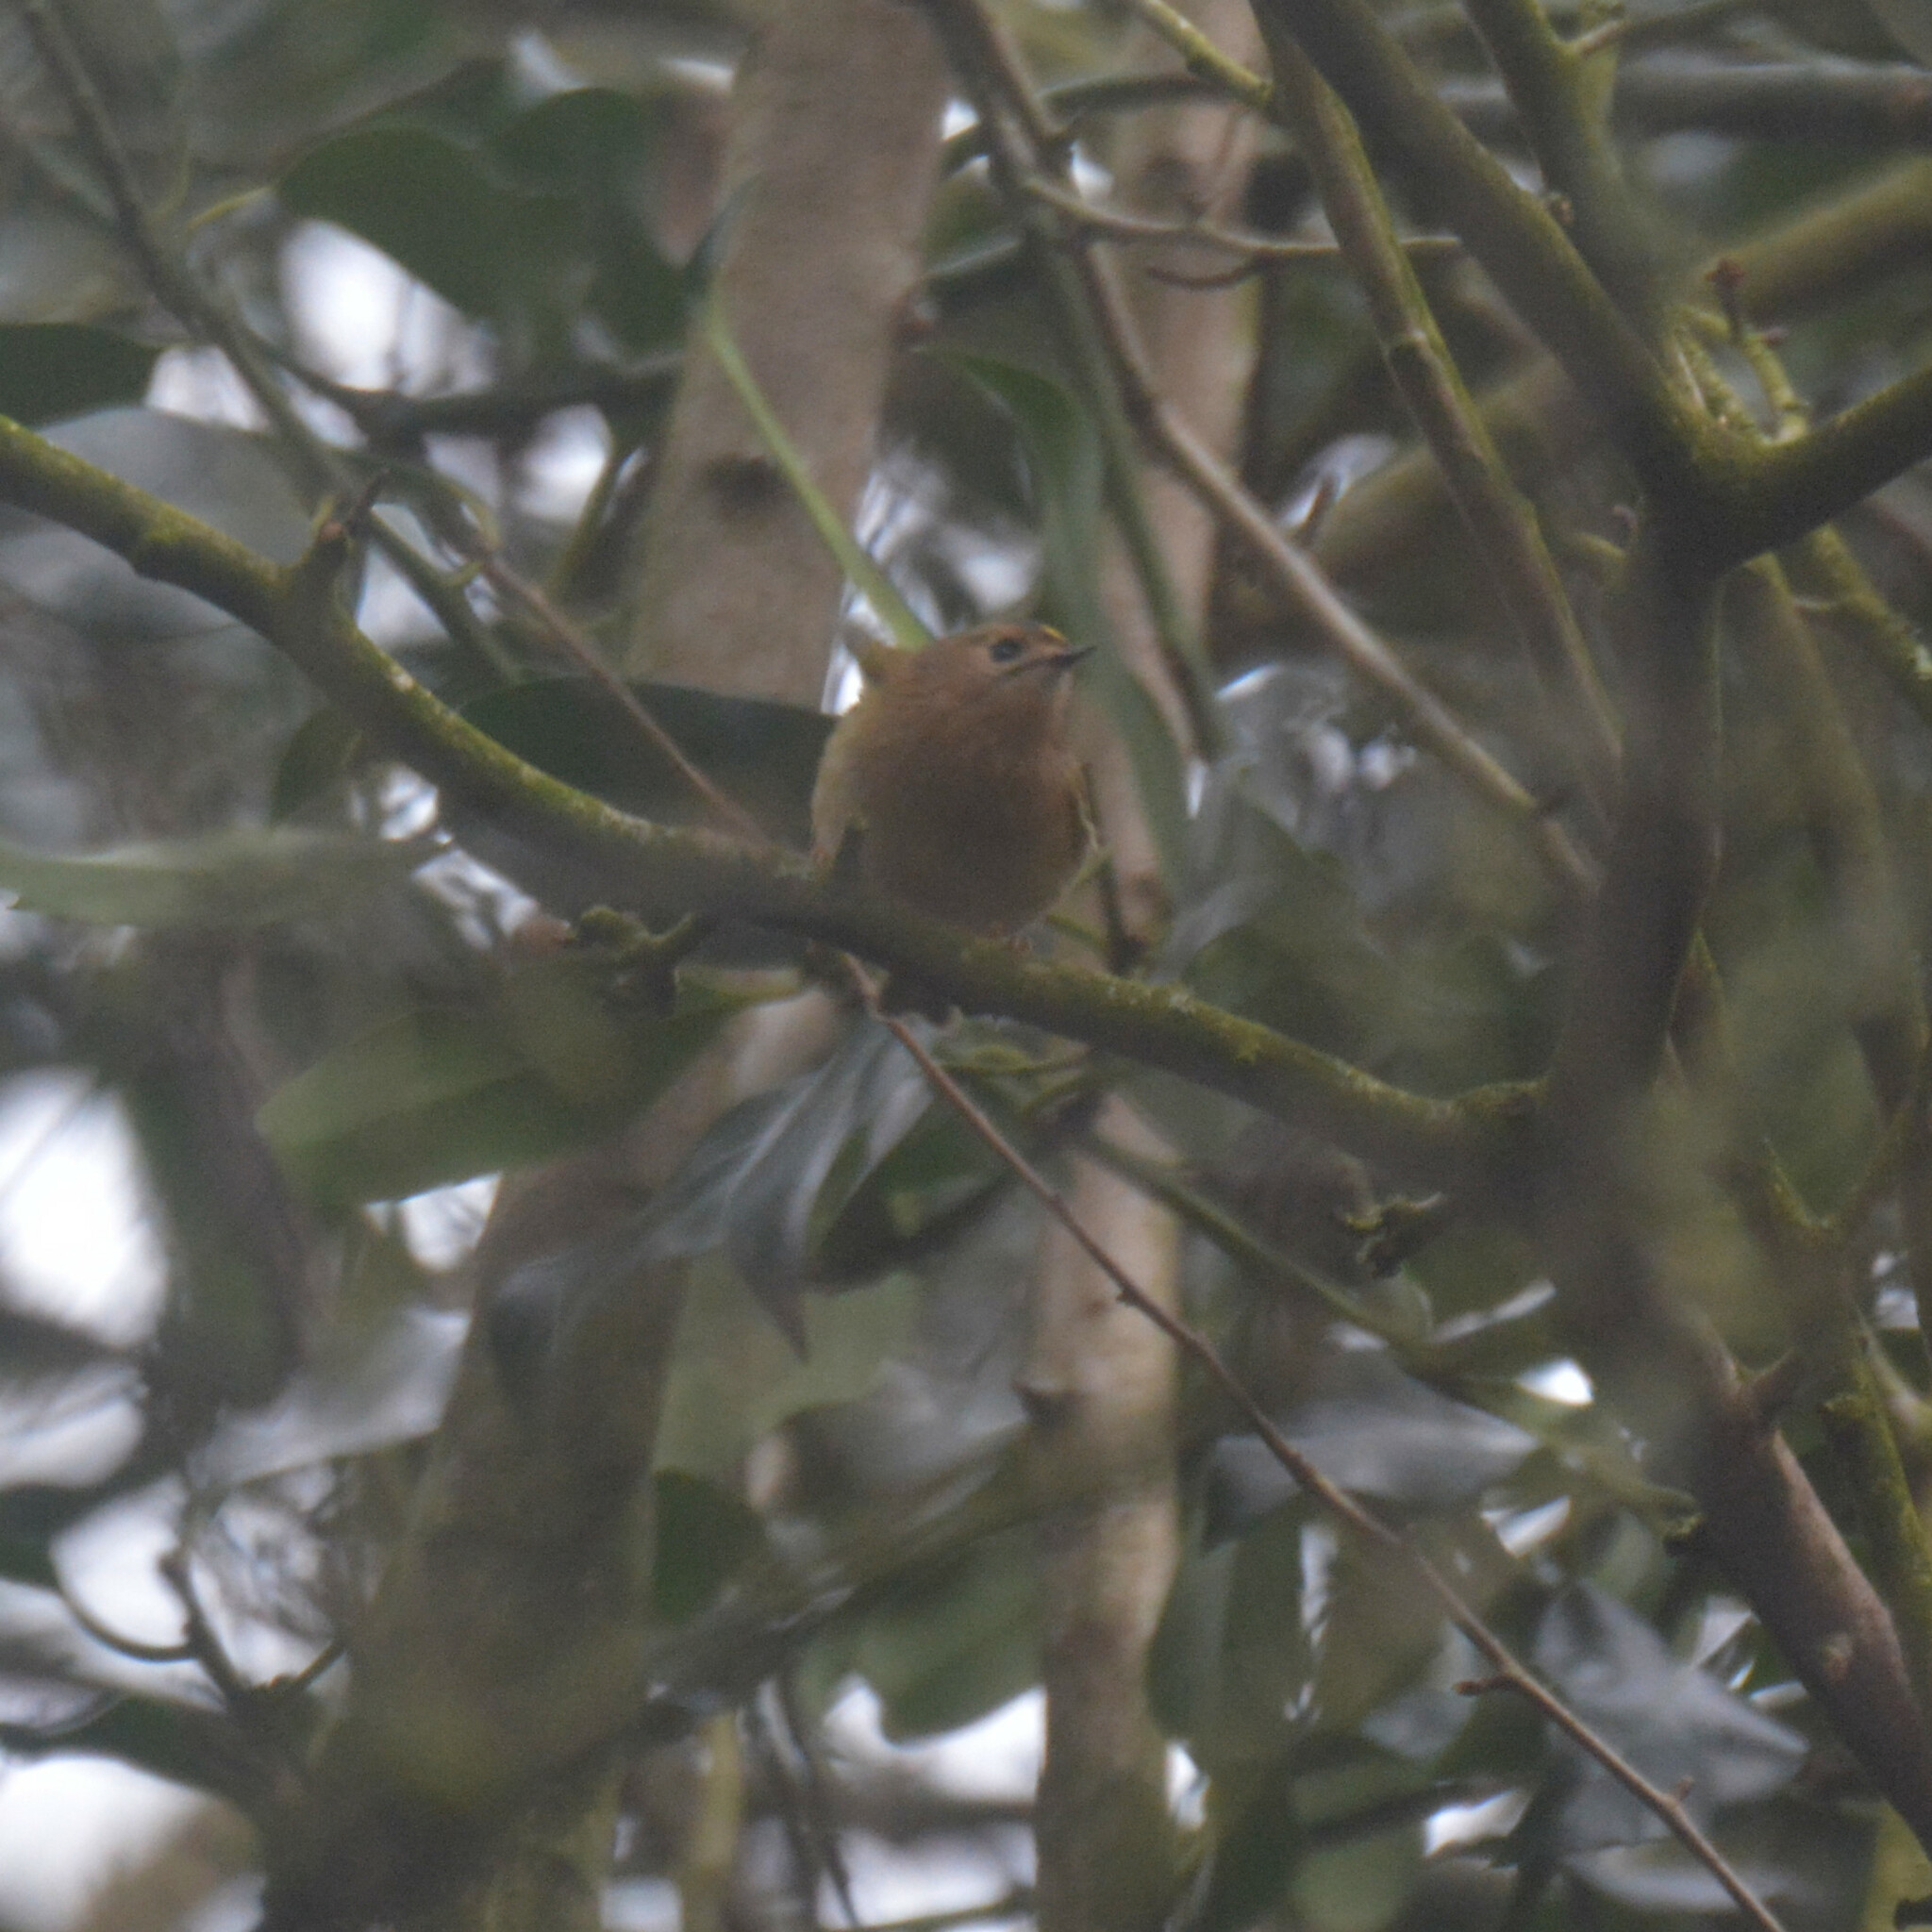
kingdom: Animalia
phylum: Chordata
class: Aves
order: Passeriformes
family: Regulidae
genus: Regulus
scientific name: Regulus regulus
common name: Goldcrest
